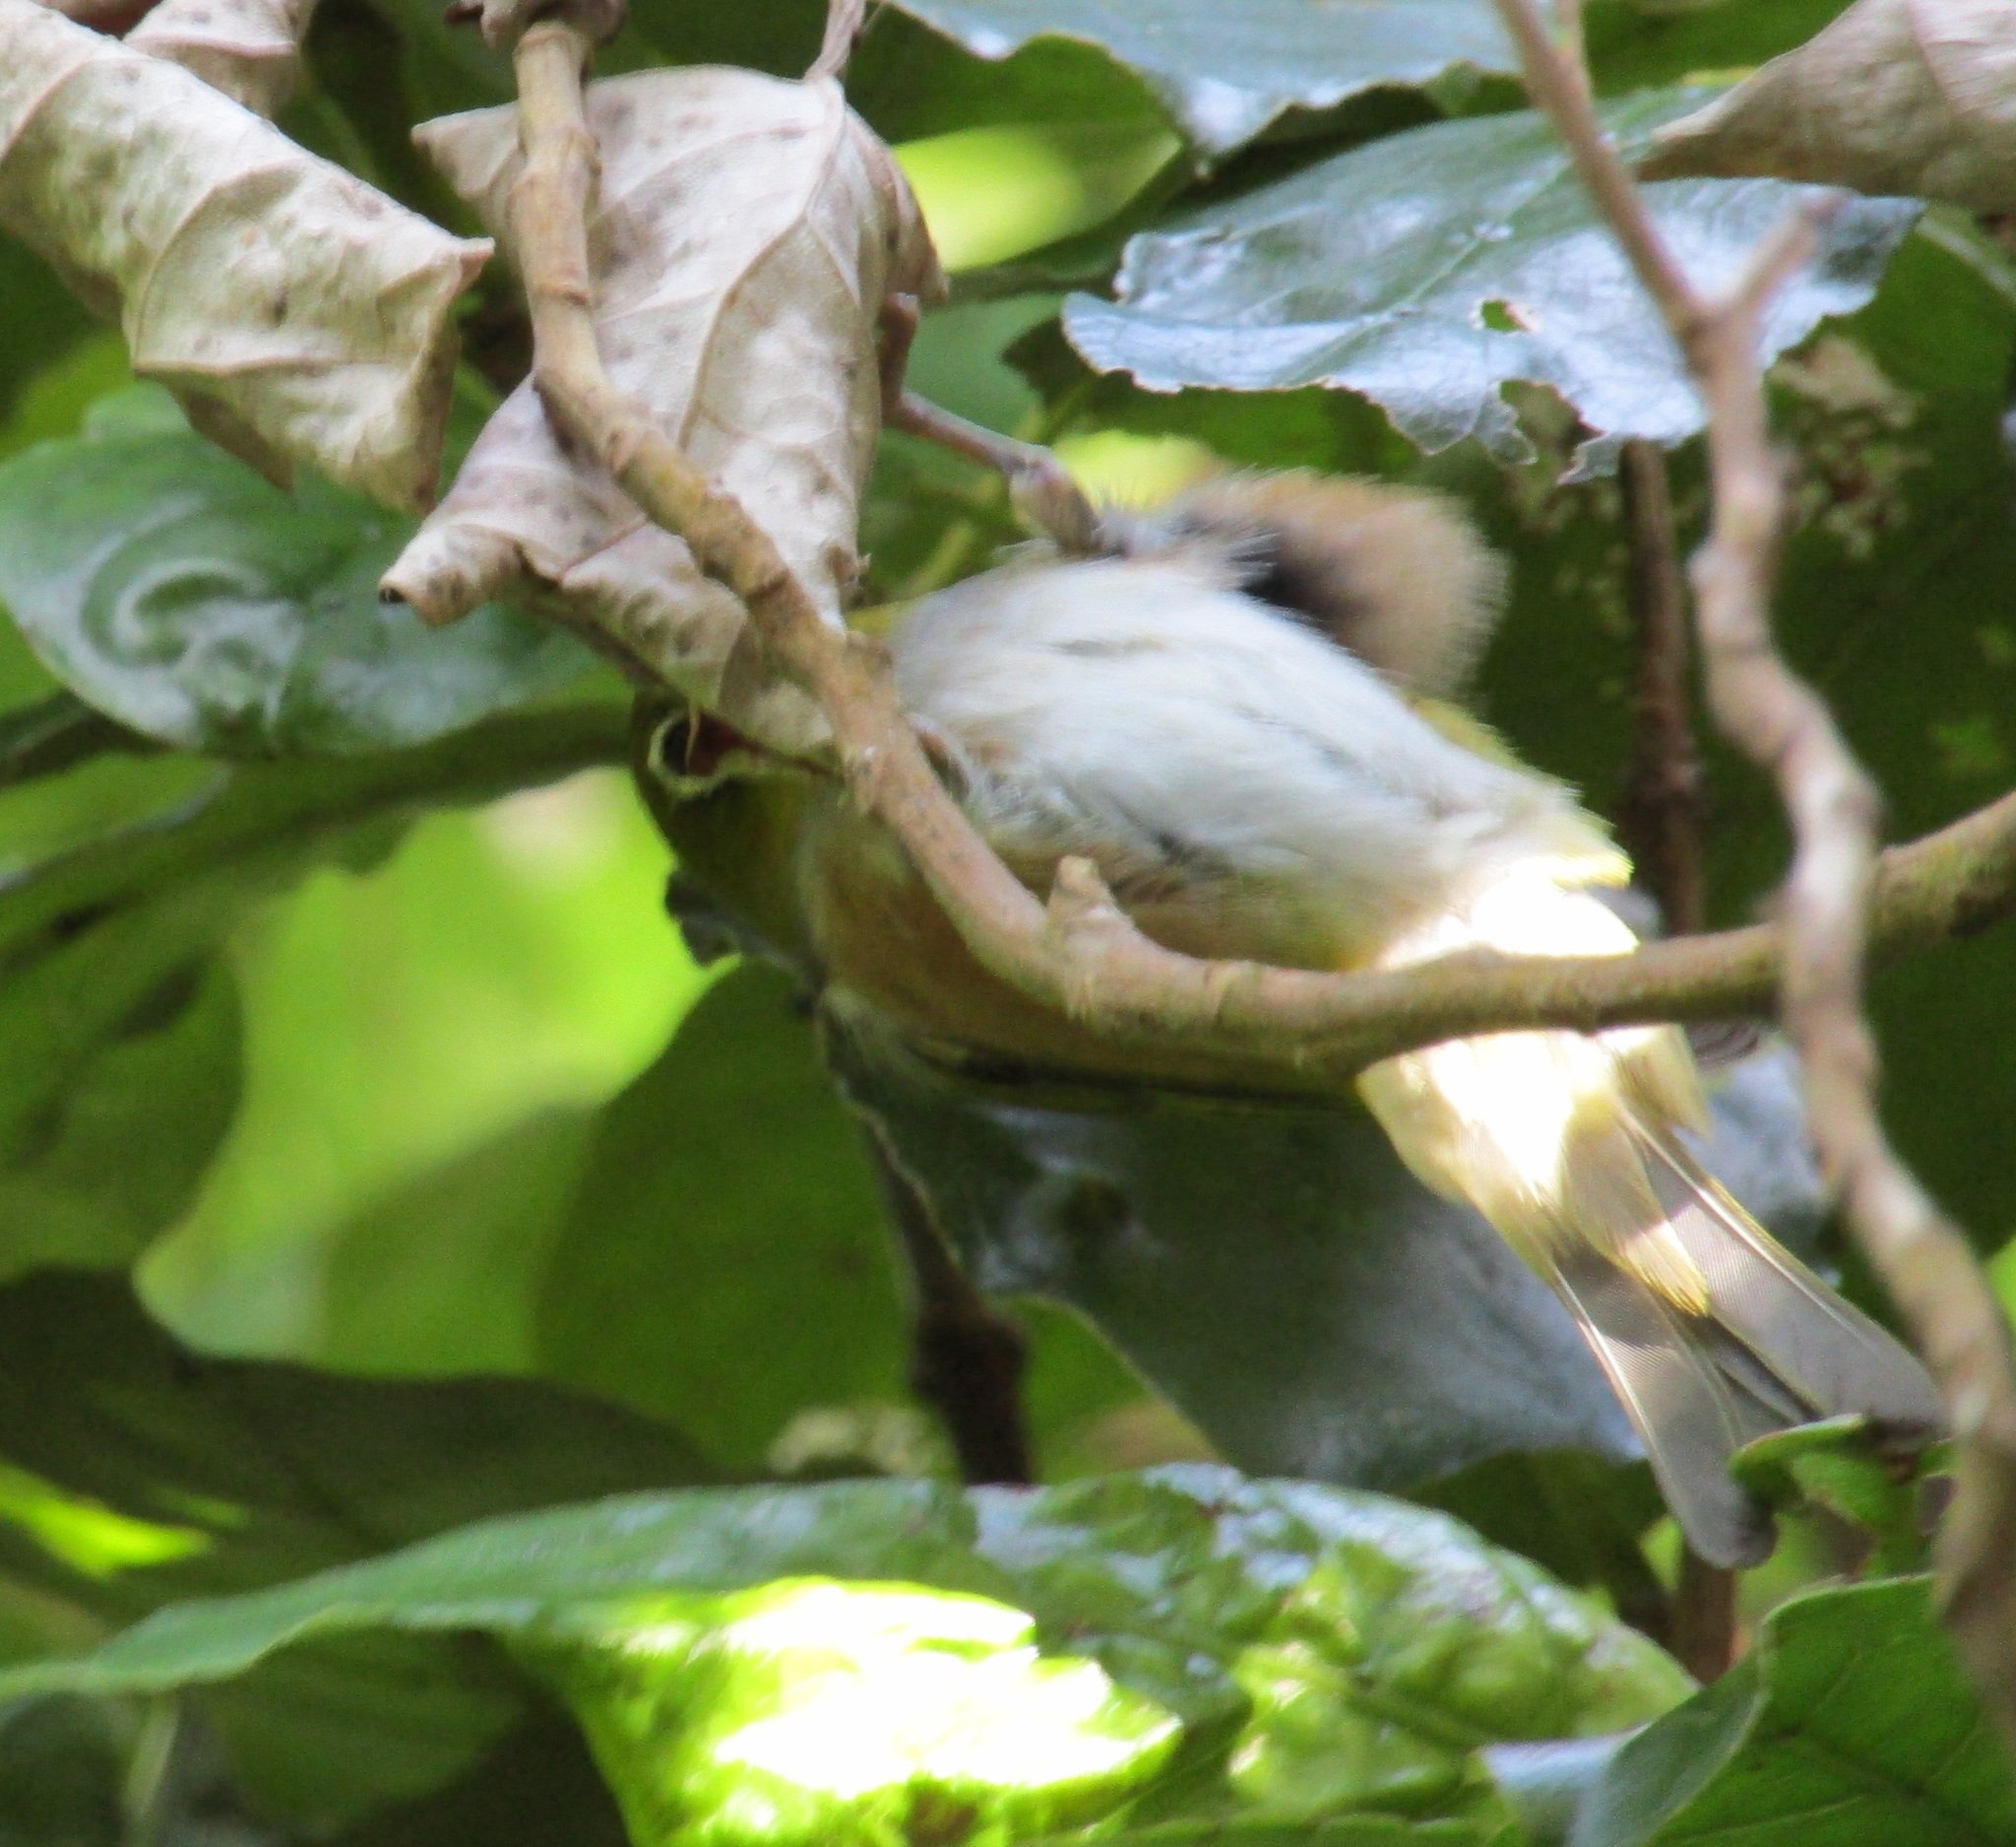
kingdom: Animalia
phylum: Chordata
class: Aves
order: Passeriformes
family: Zosteropidae
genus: Zosterops
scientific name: Zosterops lateralis
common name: Silvereye
